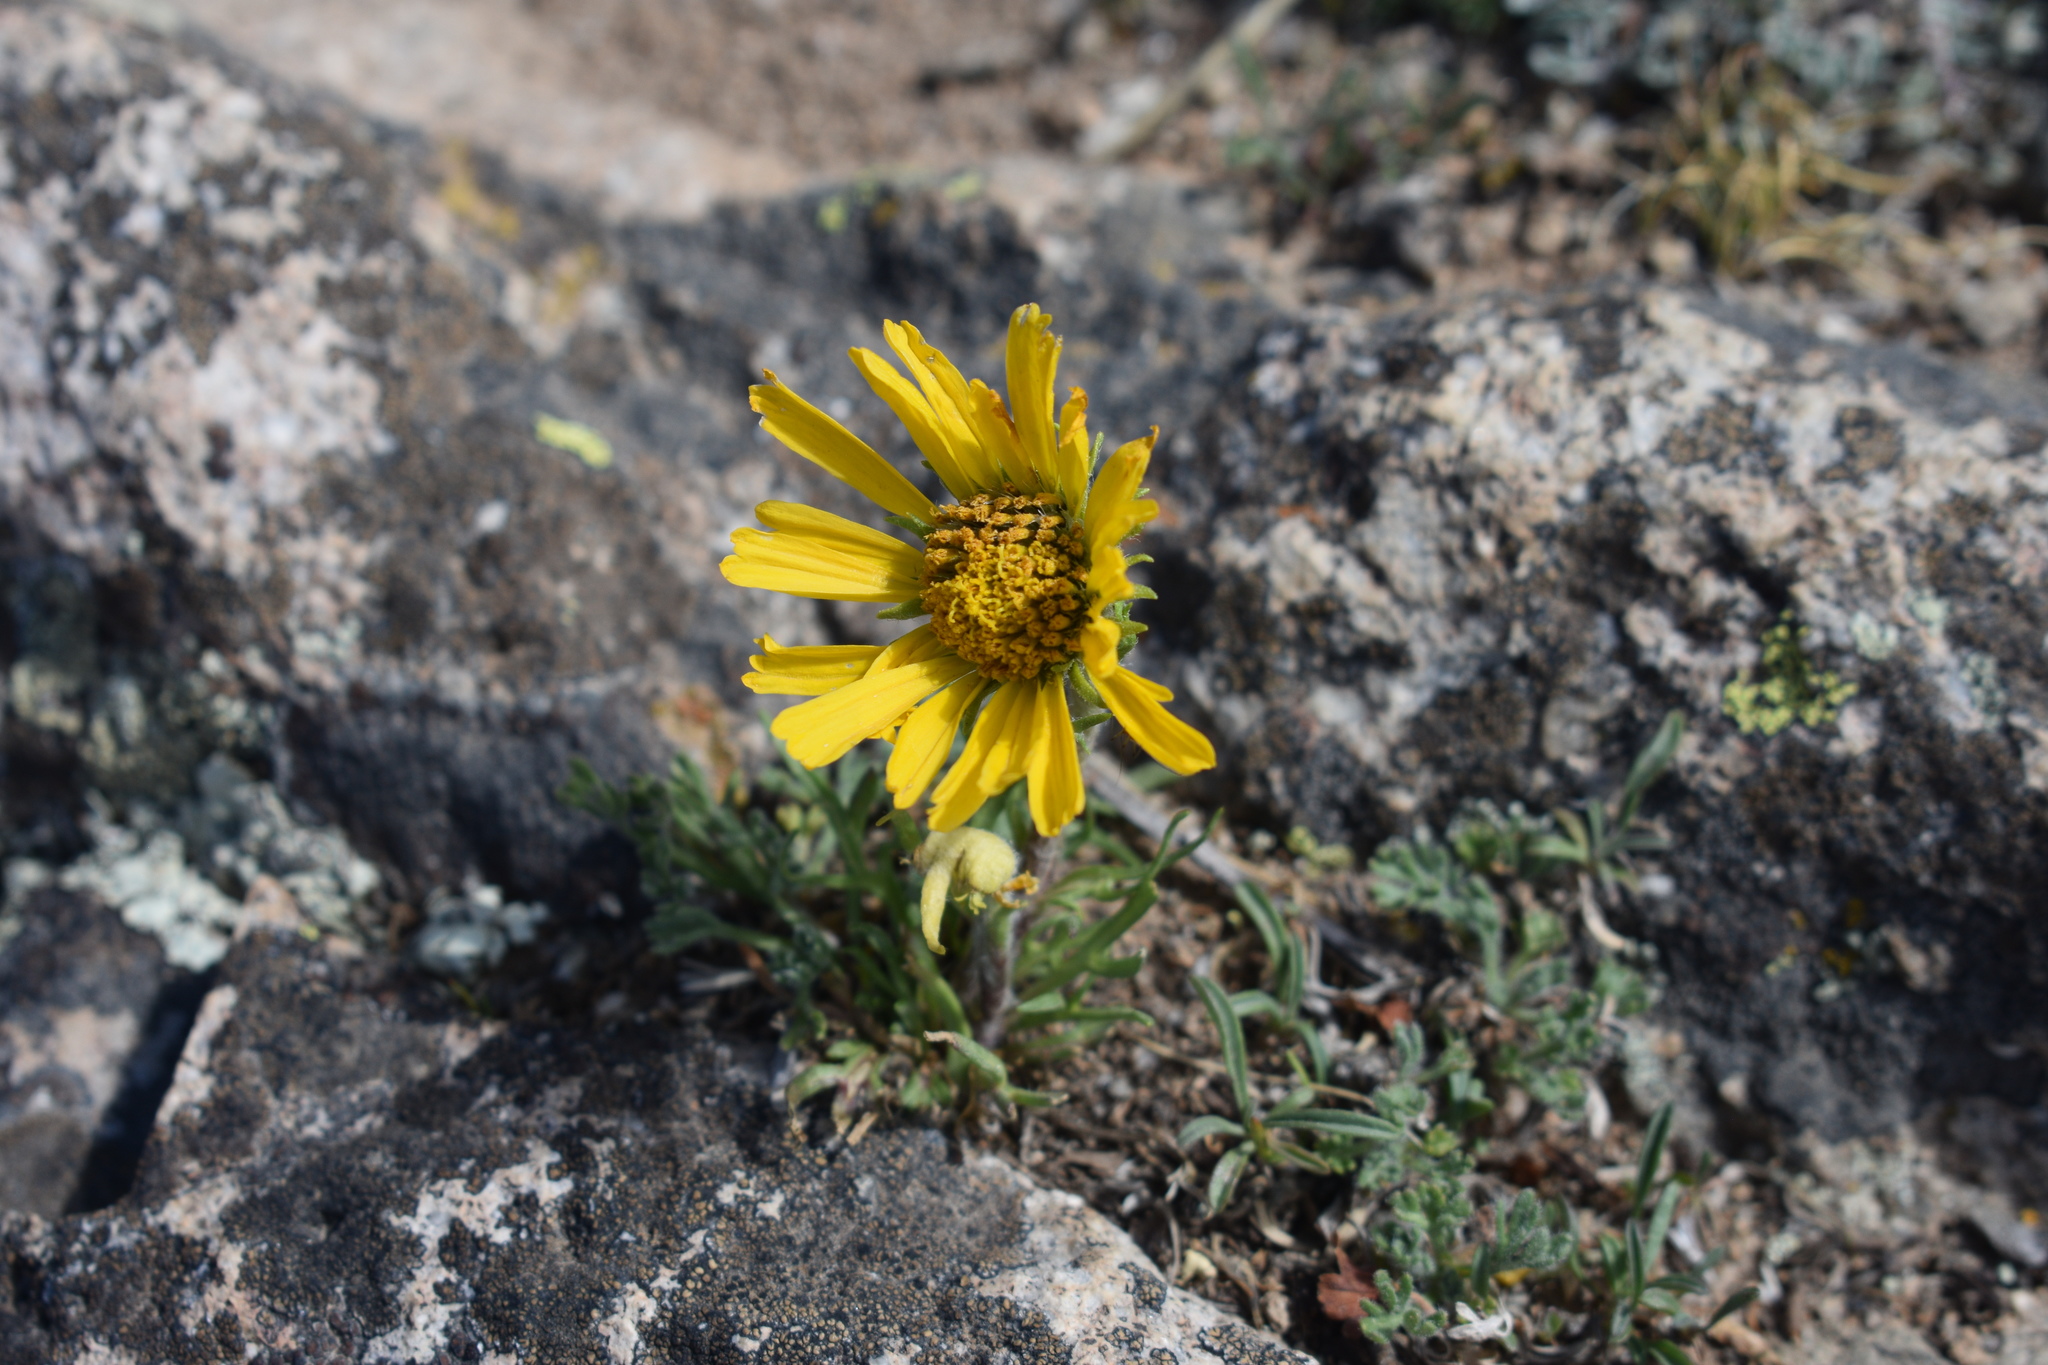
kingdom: Plantae
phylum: Tracheophyta
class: Magnoliopsida
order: Asterales
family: Asteraceae
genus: Hymenoxys
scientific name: Hymenoxys grandiflora
